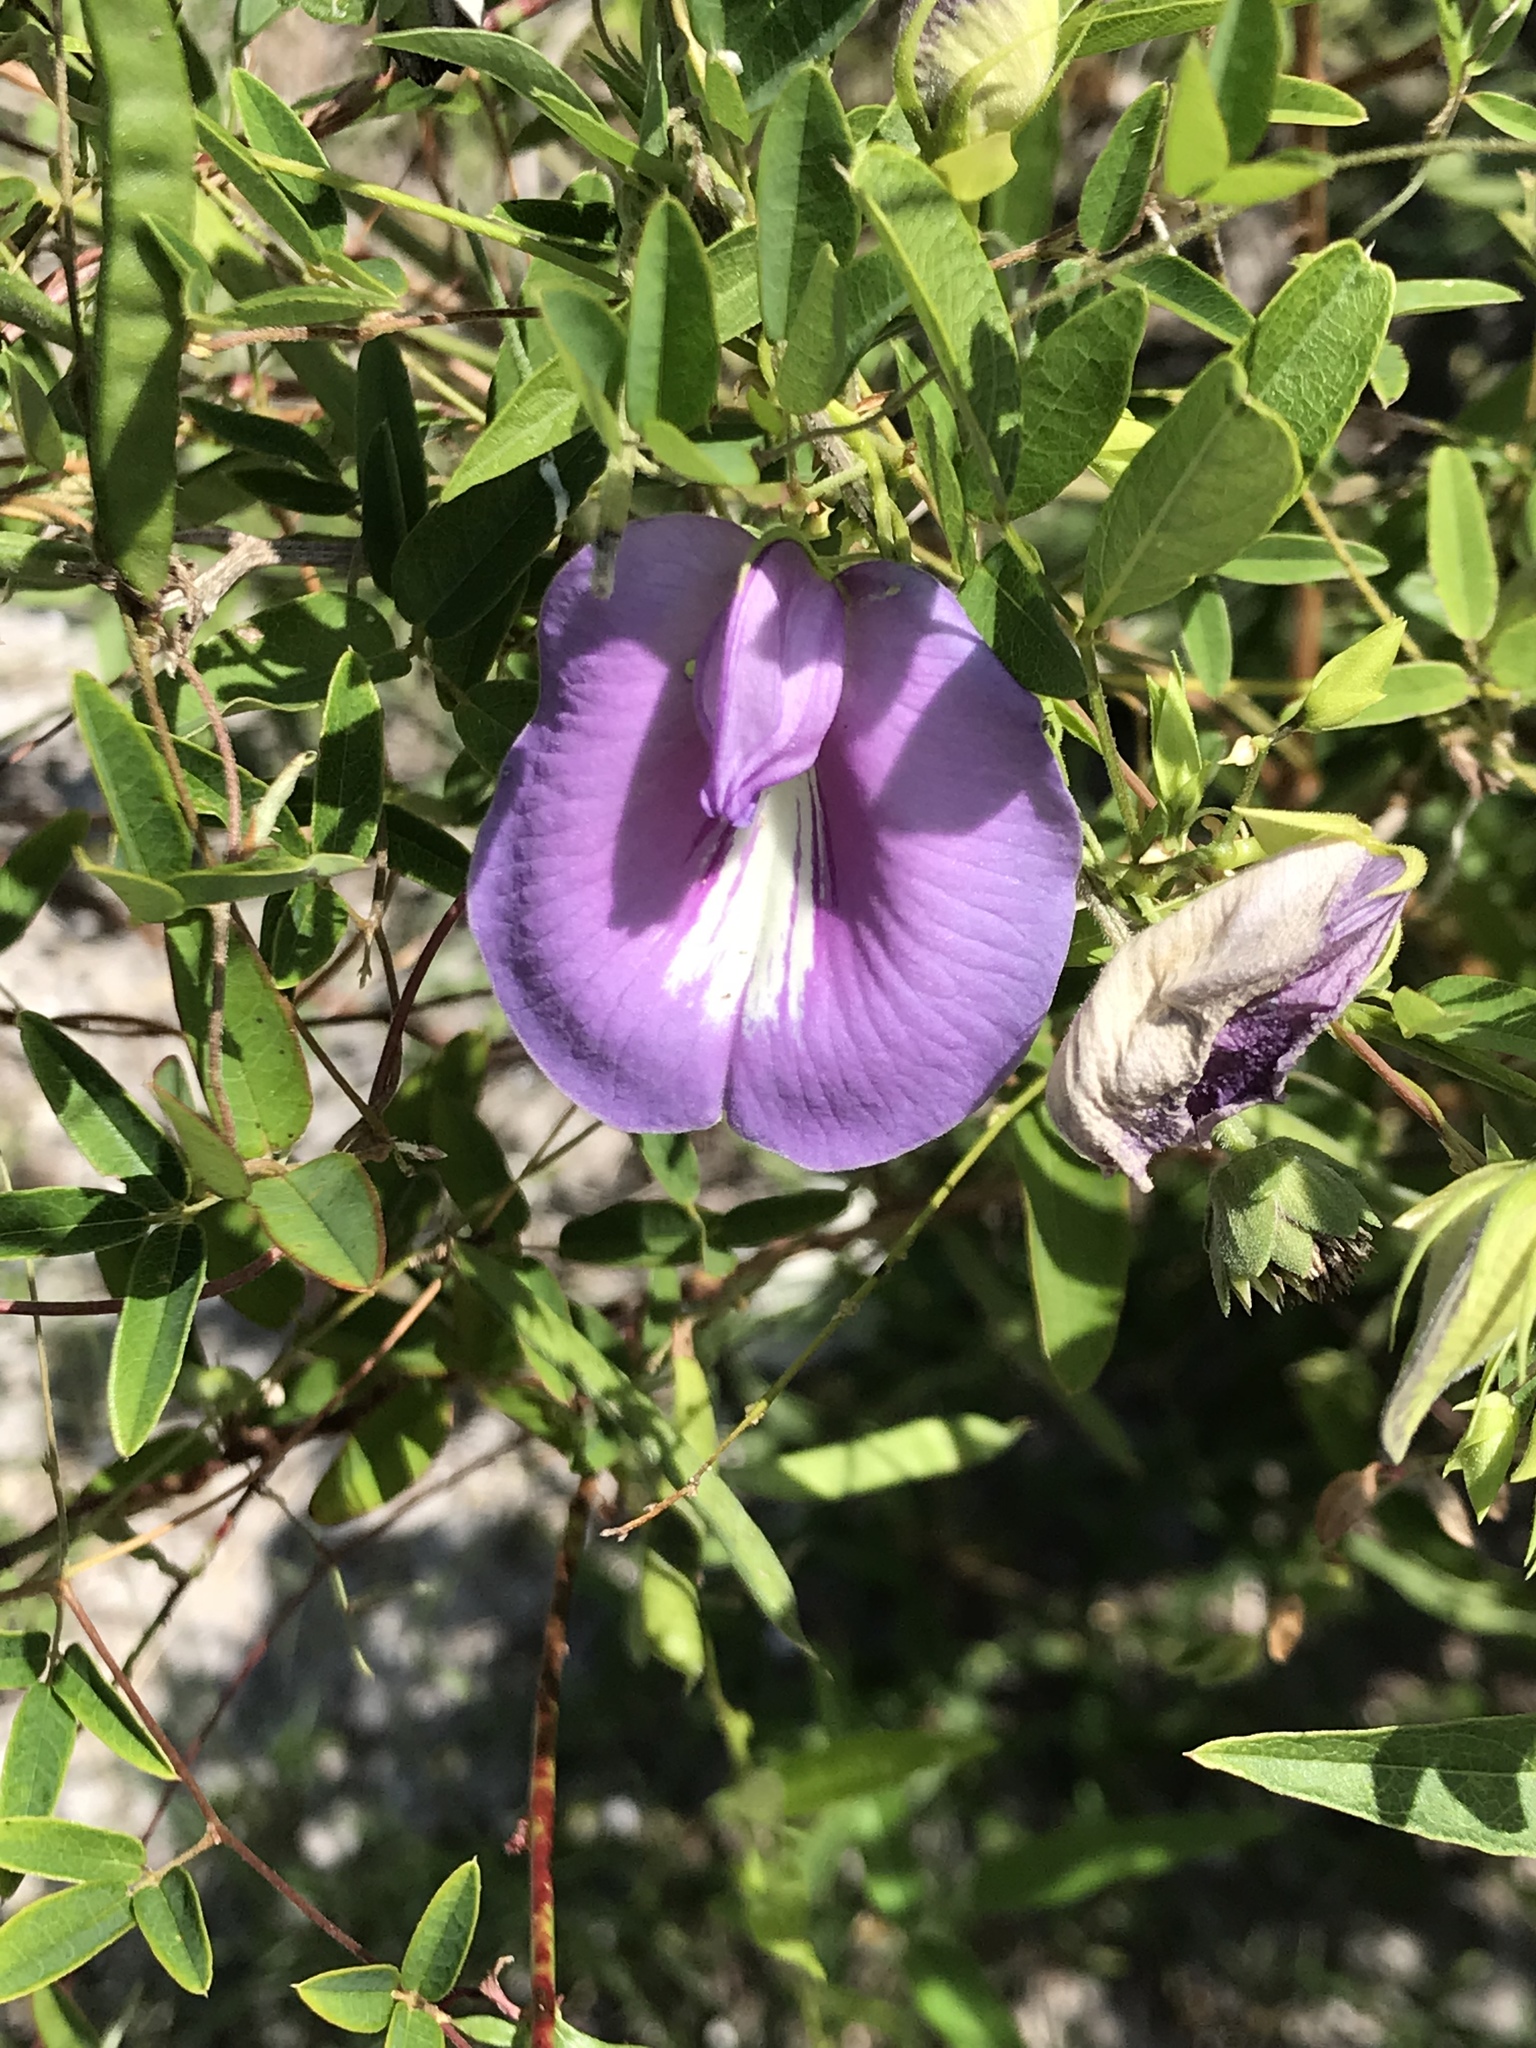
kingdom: Plantae
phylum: Tracheophyta
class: Magnoliopsida
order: Fabales
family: Fabaceae
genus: Centrosema
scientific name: Centrosema virginianum
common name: Butterfly-pea
